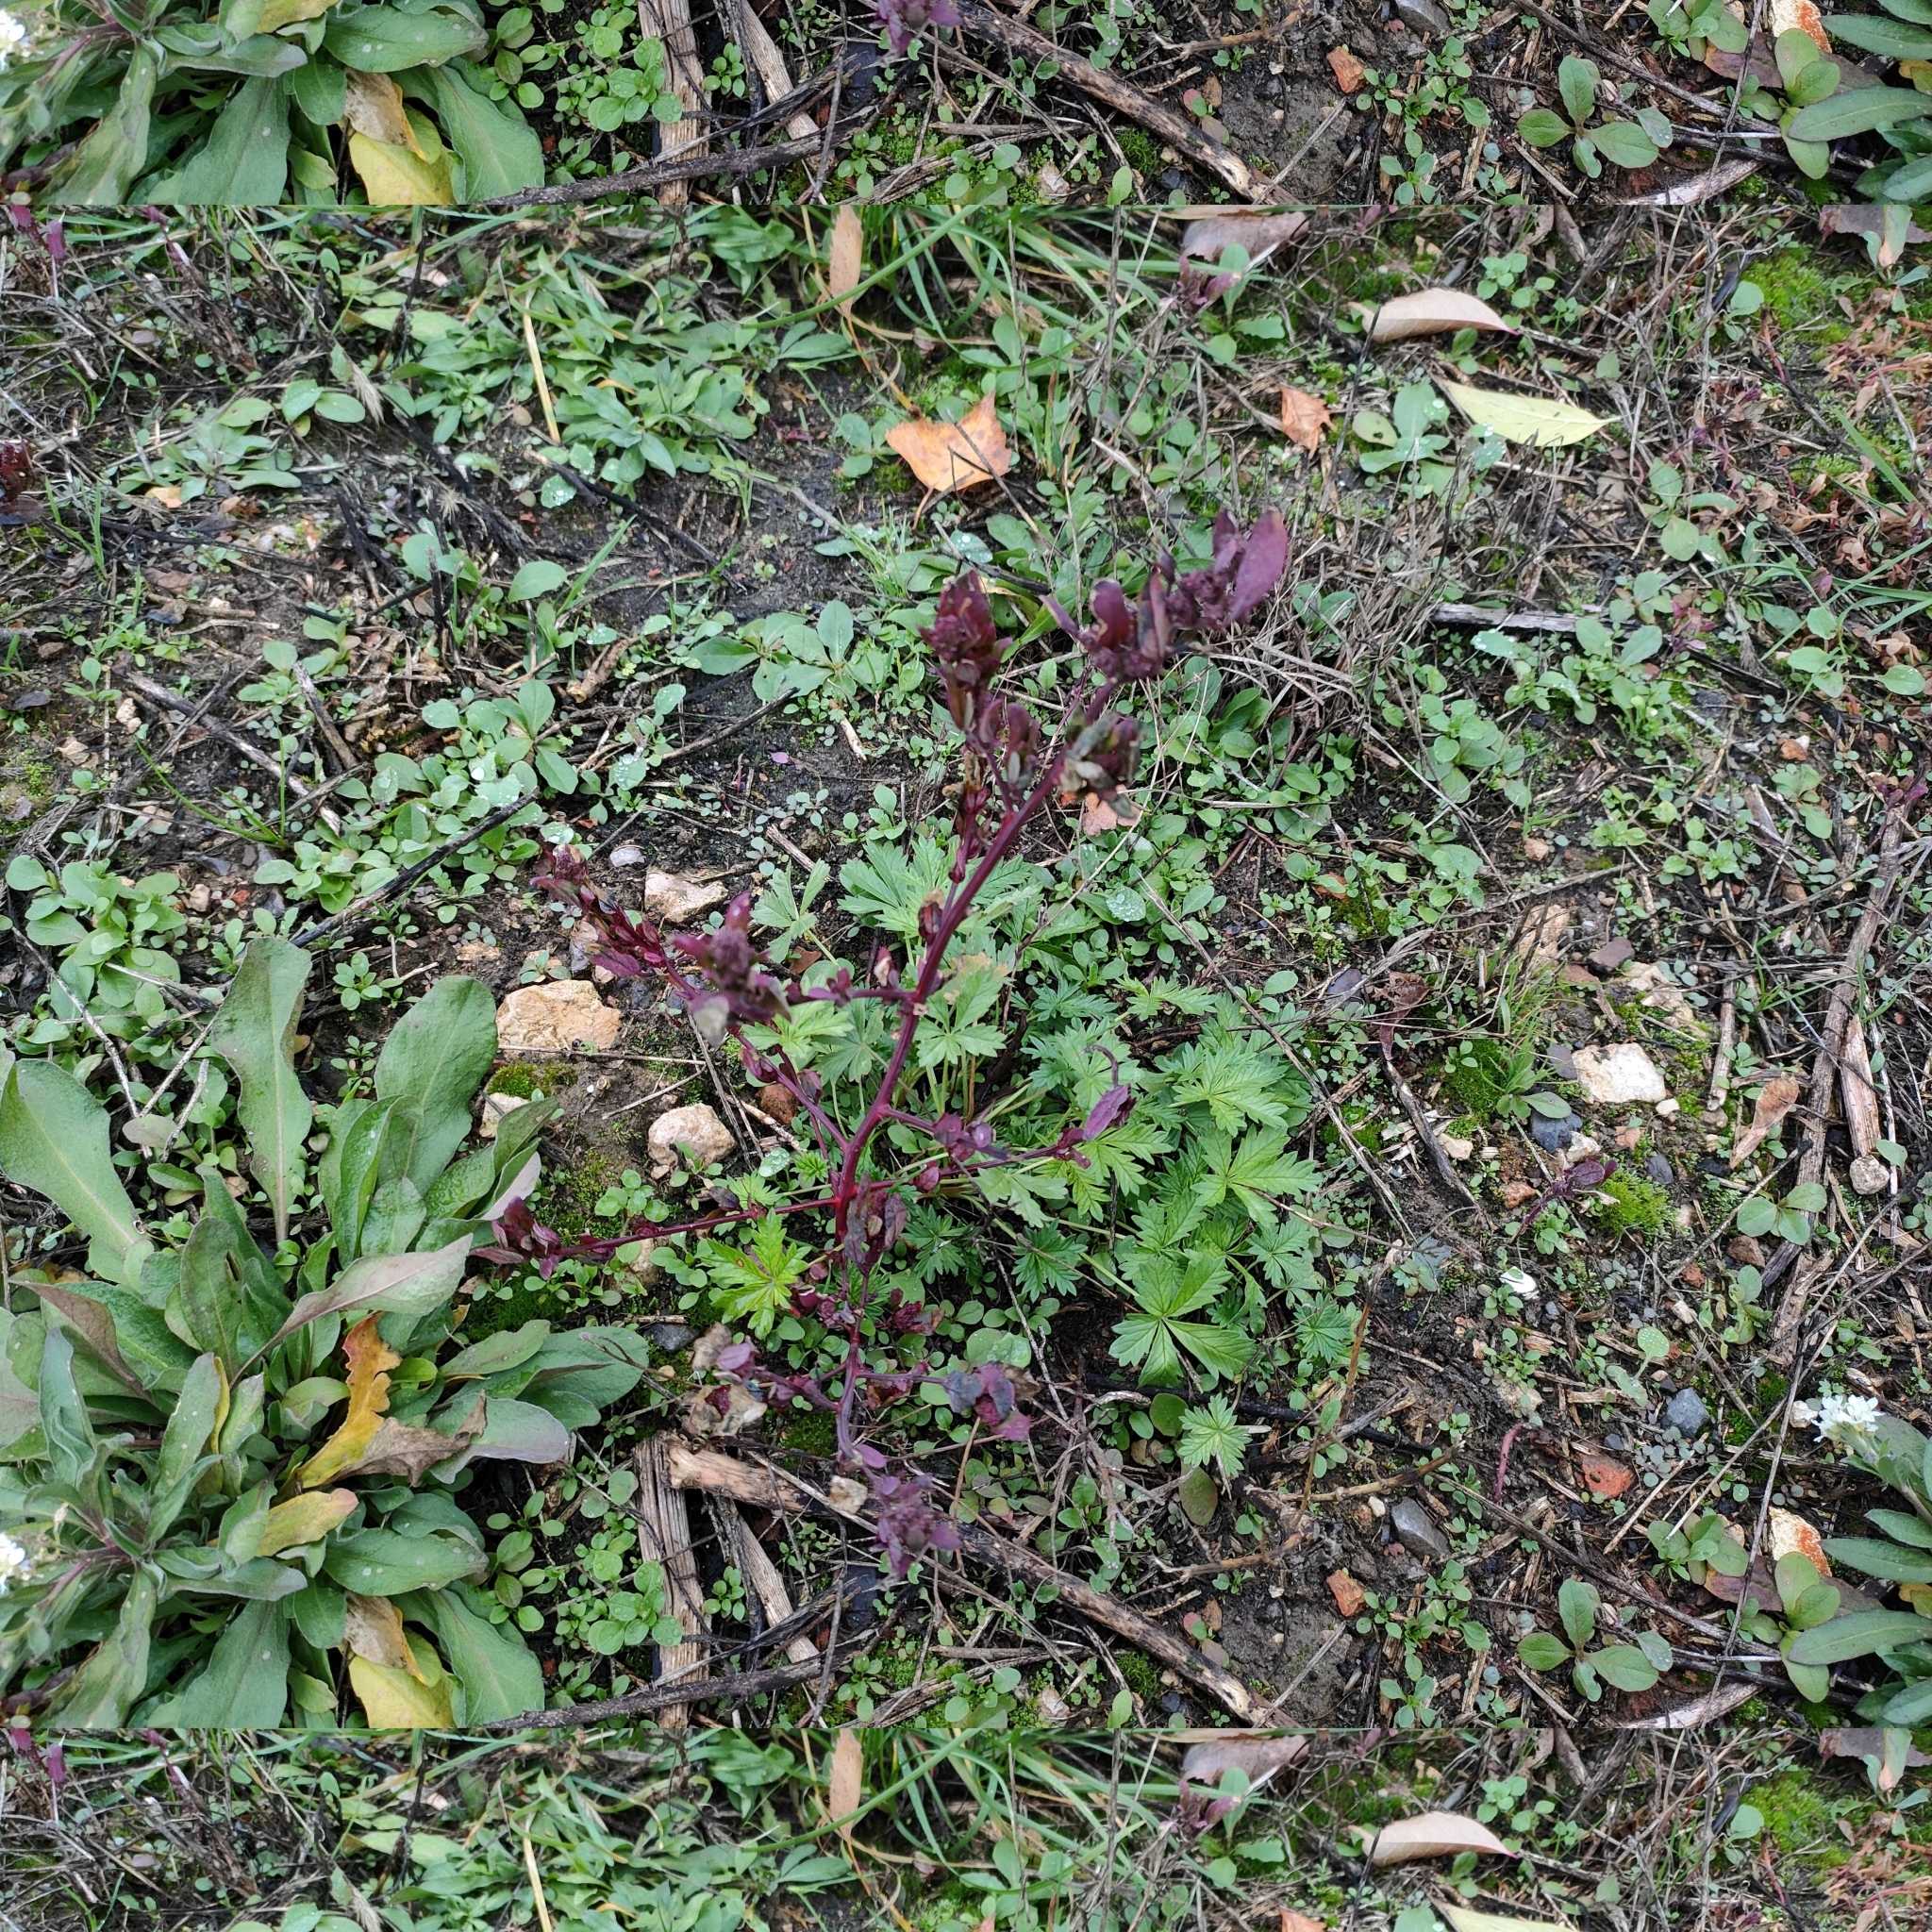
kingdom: Plantae
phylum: Tracheophyta
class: Magnoliopsida
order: Caryophyllales
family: Amaranthaceae
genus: Oxybasis
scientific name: Oxybasis rubra
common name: Red goosefoot
